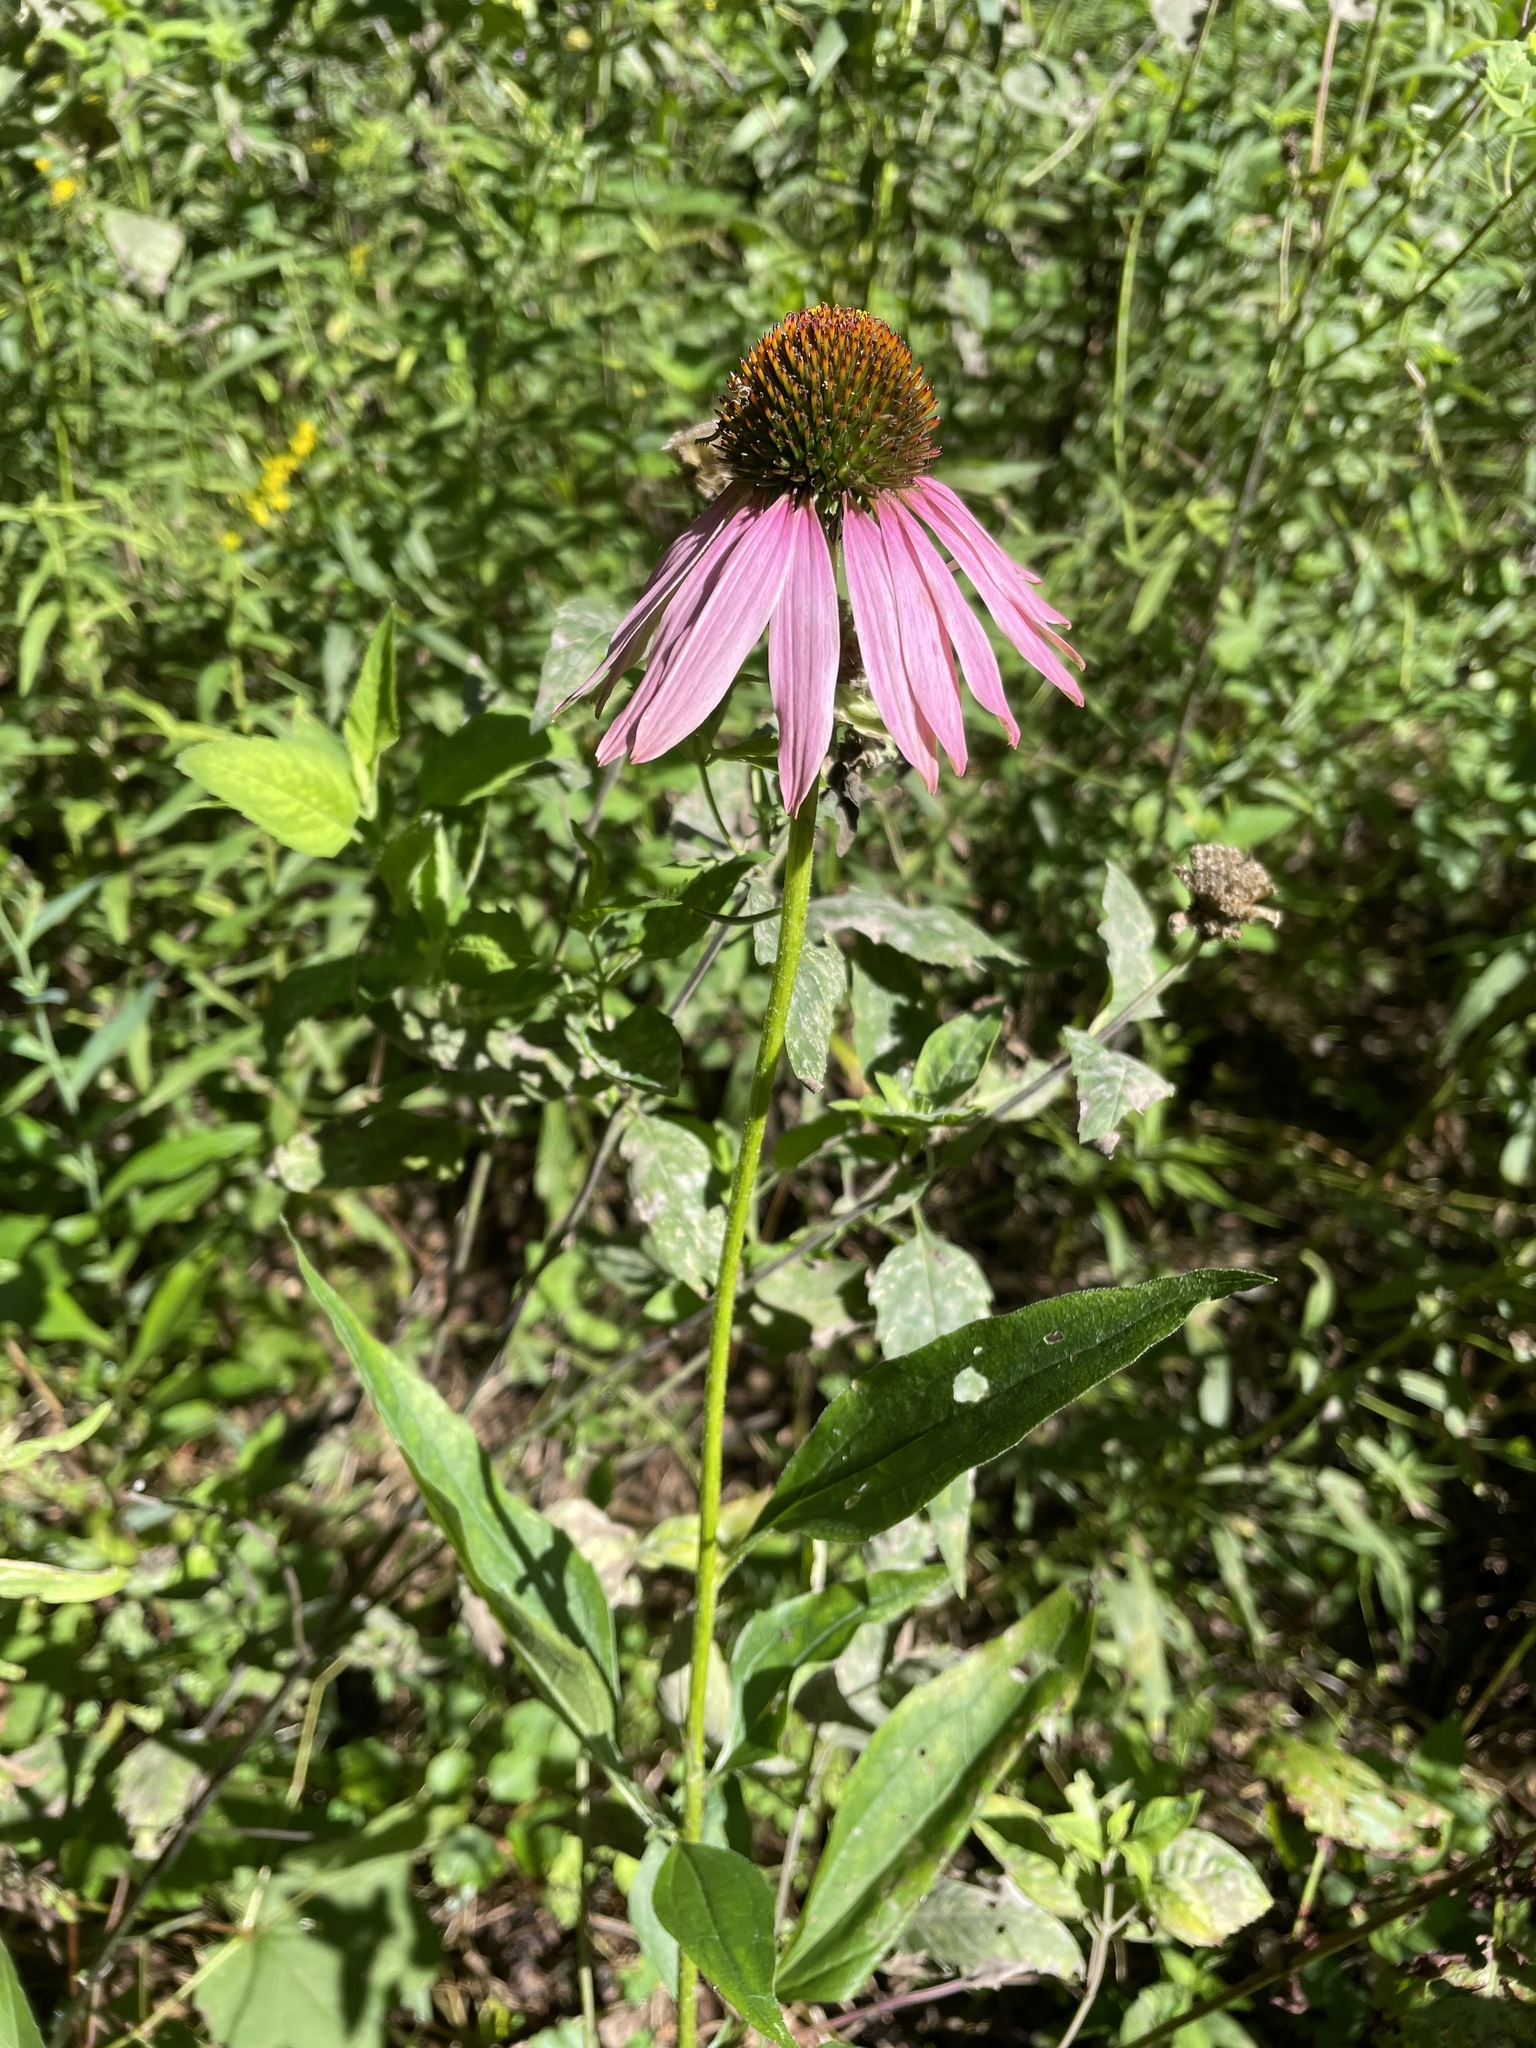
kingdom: Plantae
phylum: Tracheophyta
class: Magnoliopsida
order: Asterales
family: Asteraceae
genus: Echinacea
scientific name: Echinacea purpurea
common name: Broad-leaved purple coneflower
